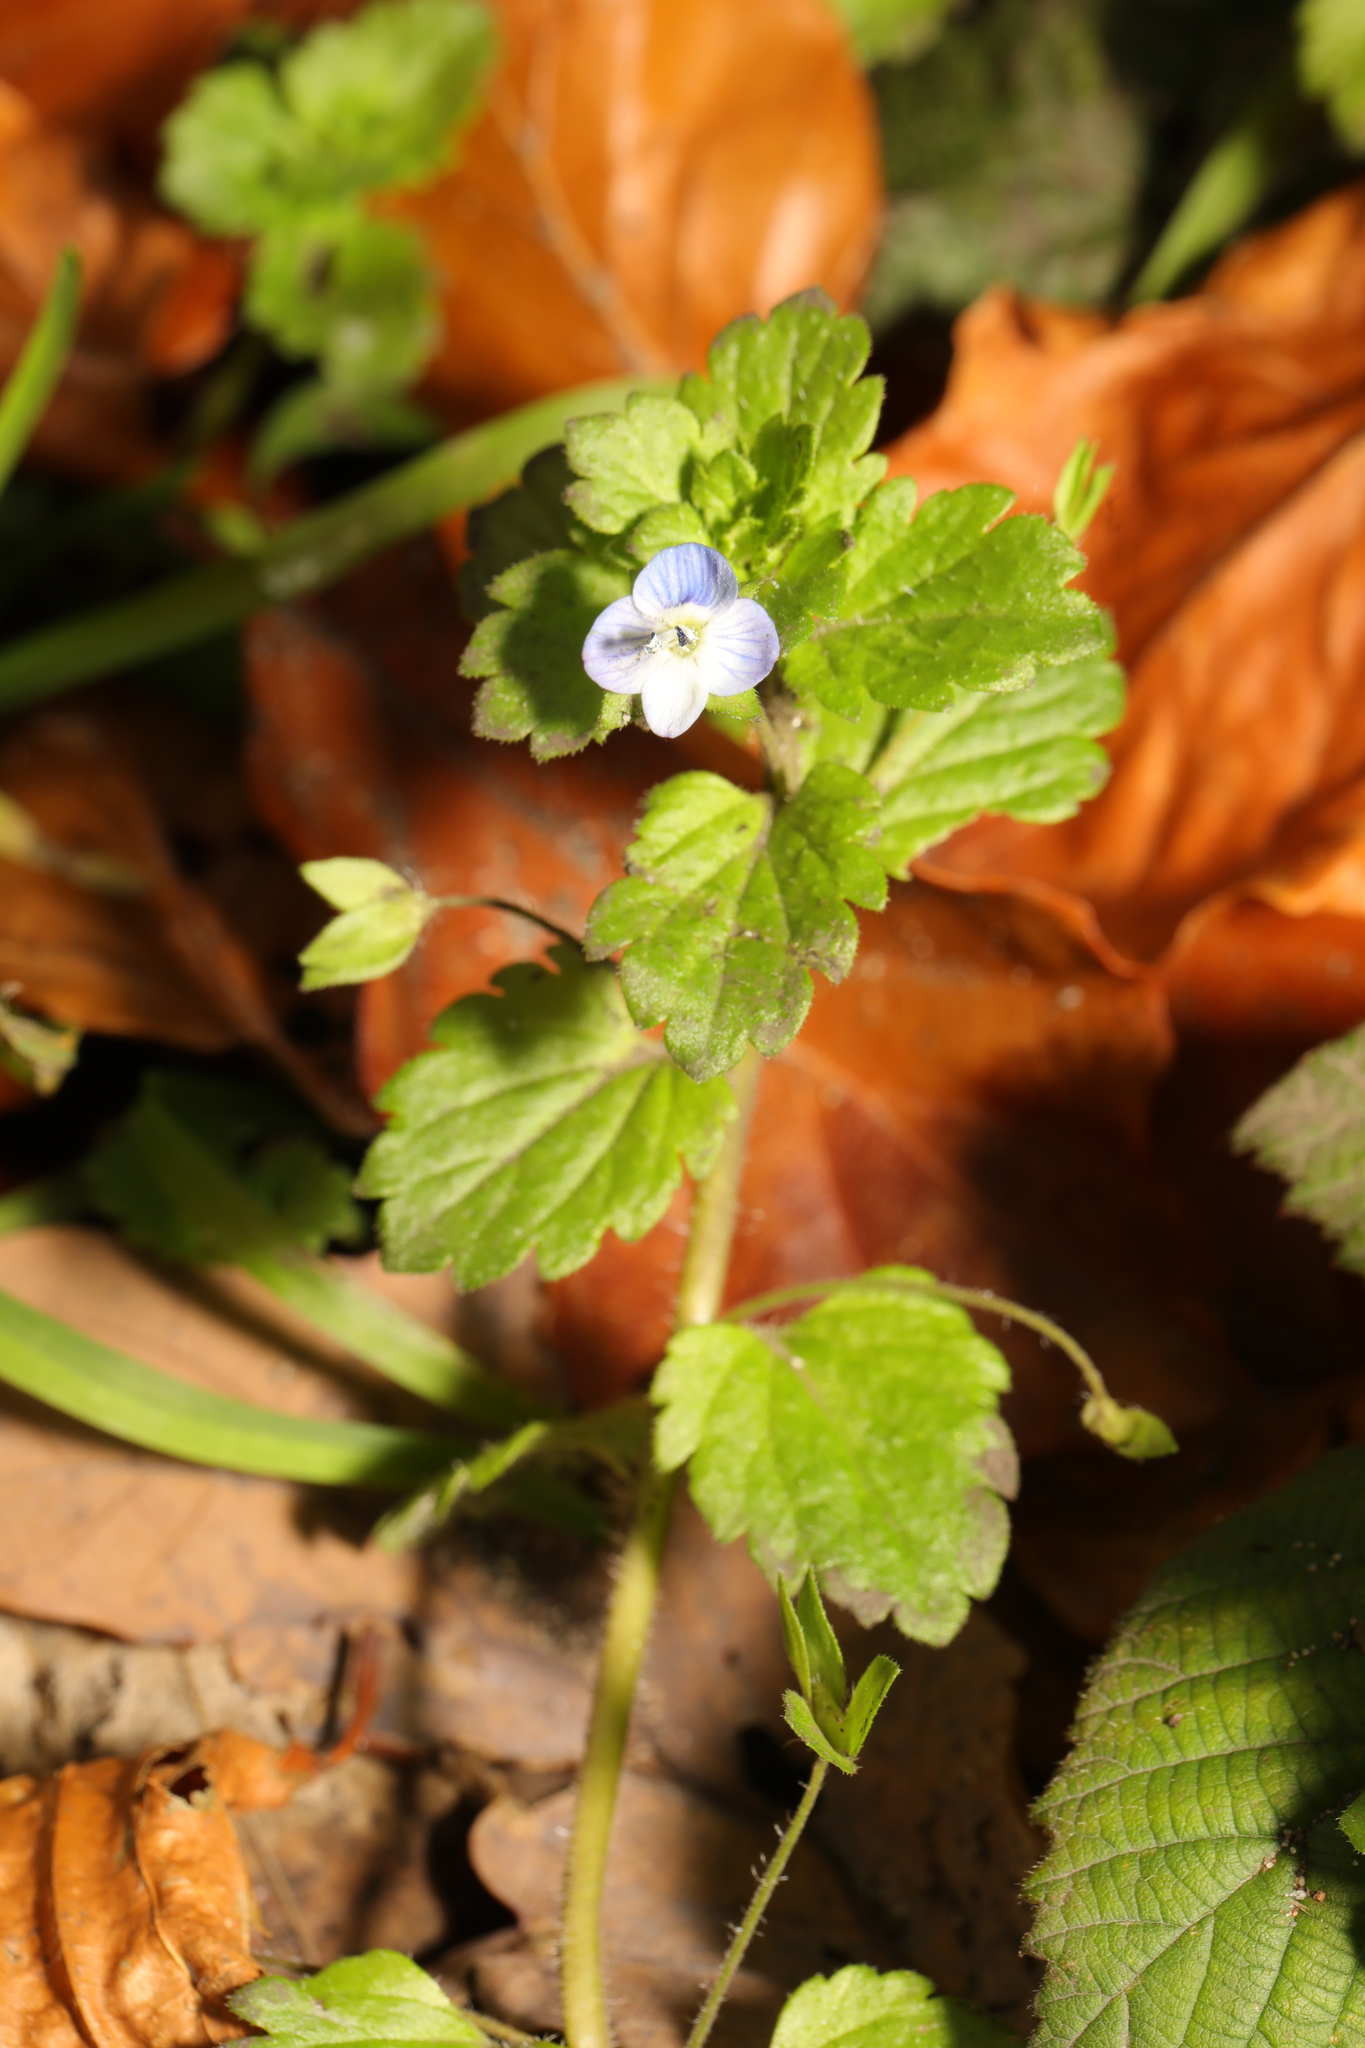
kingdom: Plantae
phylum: Tracheophyta
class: Magnoliopsida
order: Lamiales
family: Plantaginaceae
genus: Veronica
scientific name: Veronica persica
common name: Common field-speedwell
